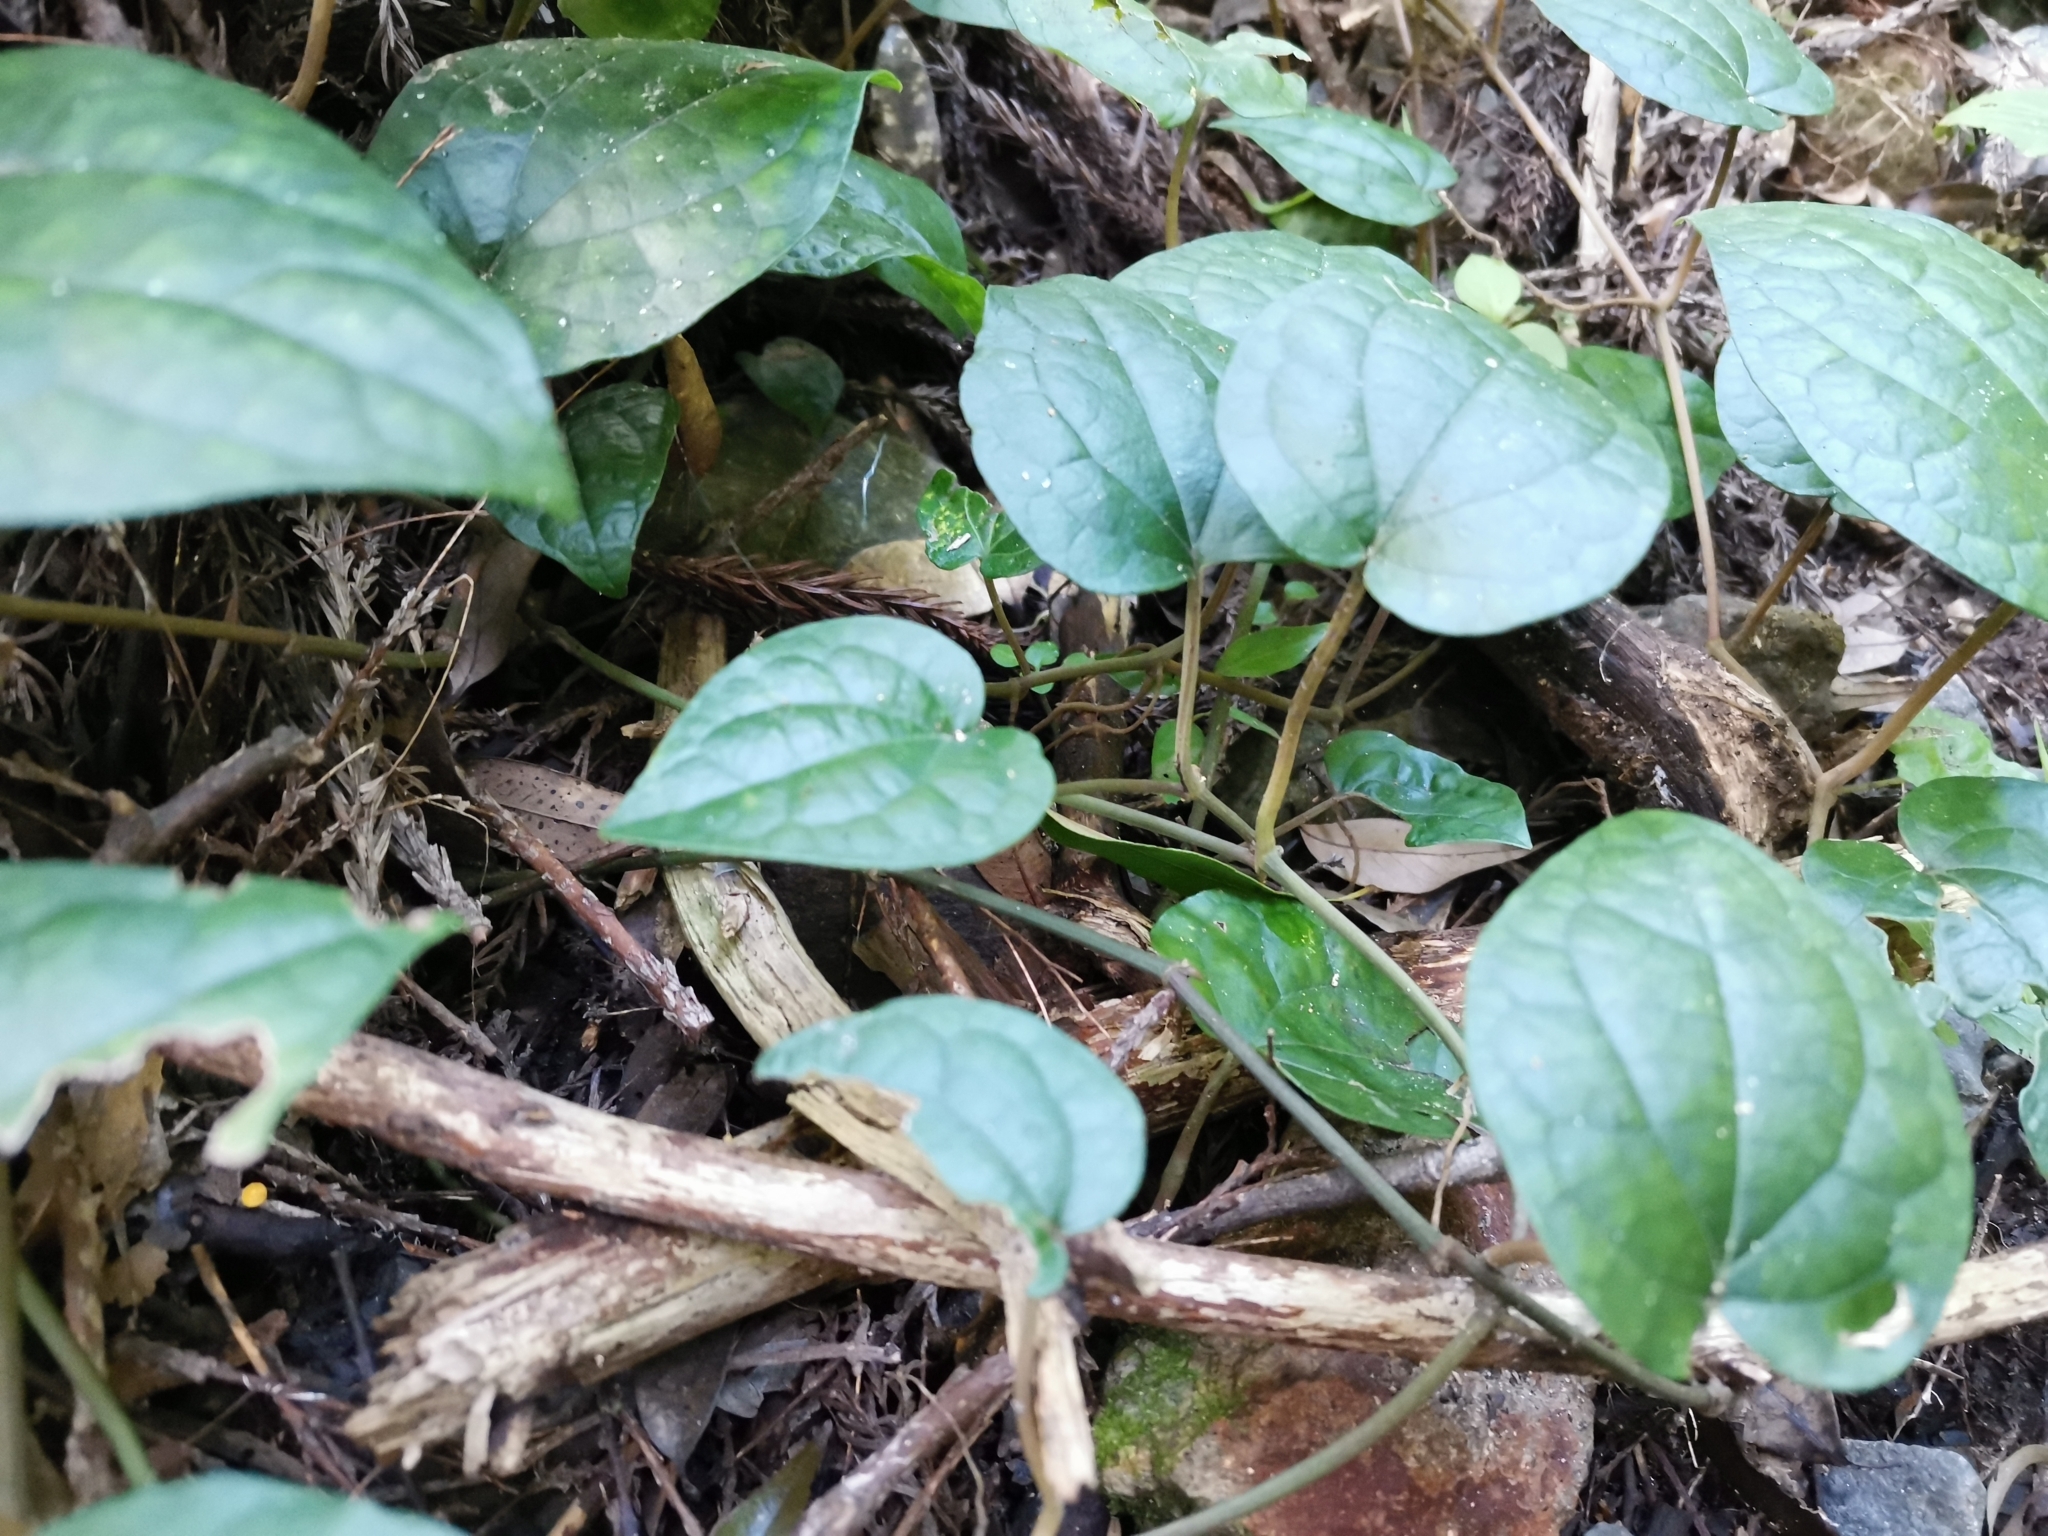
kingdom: Plantae
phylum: Tracheophyta
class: Magnoliopsida
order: Piperales
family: Piperaceae
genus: Piper
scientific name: Piper kadsura
